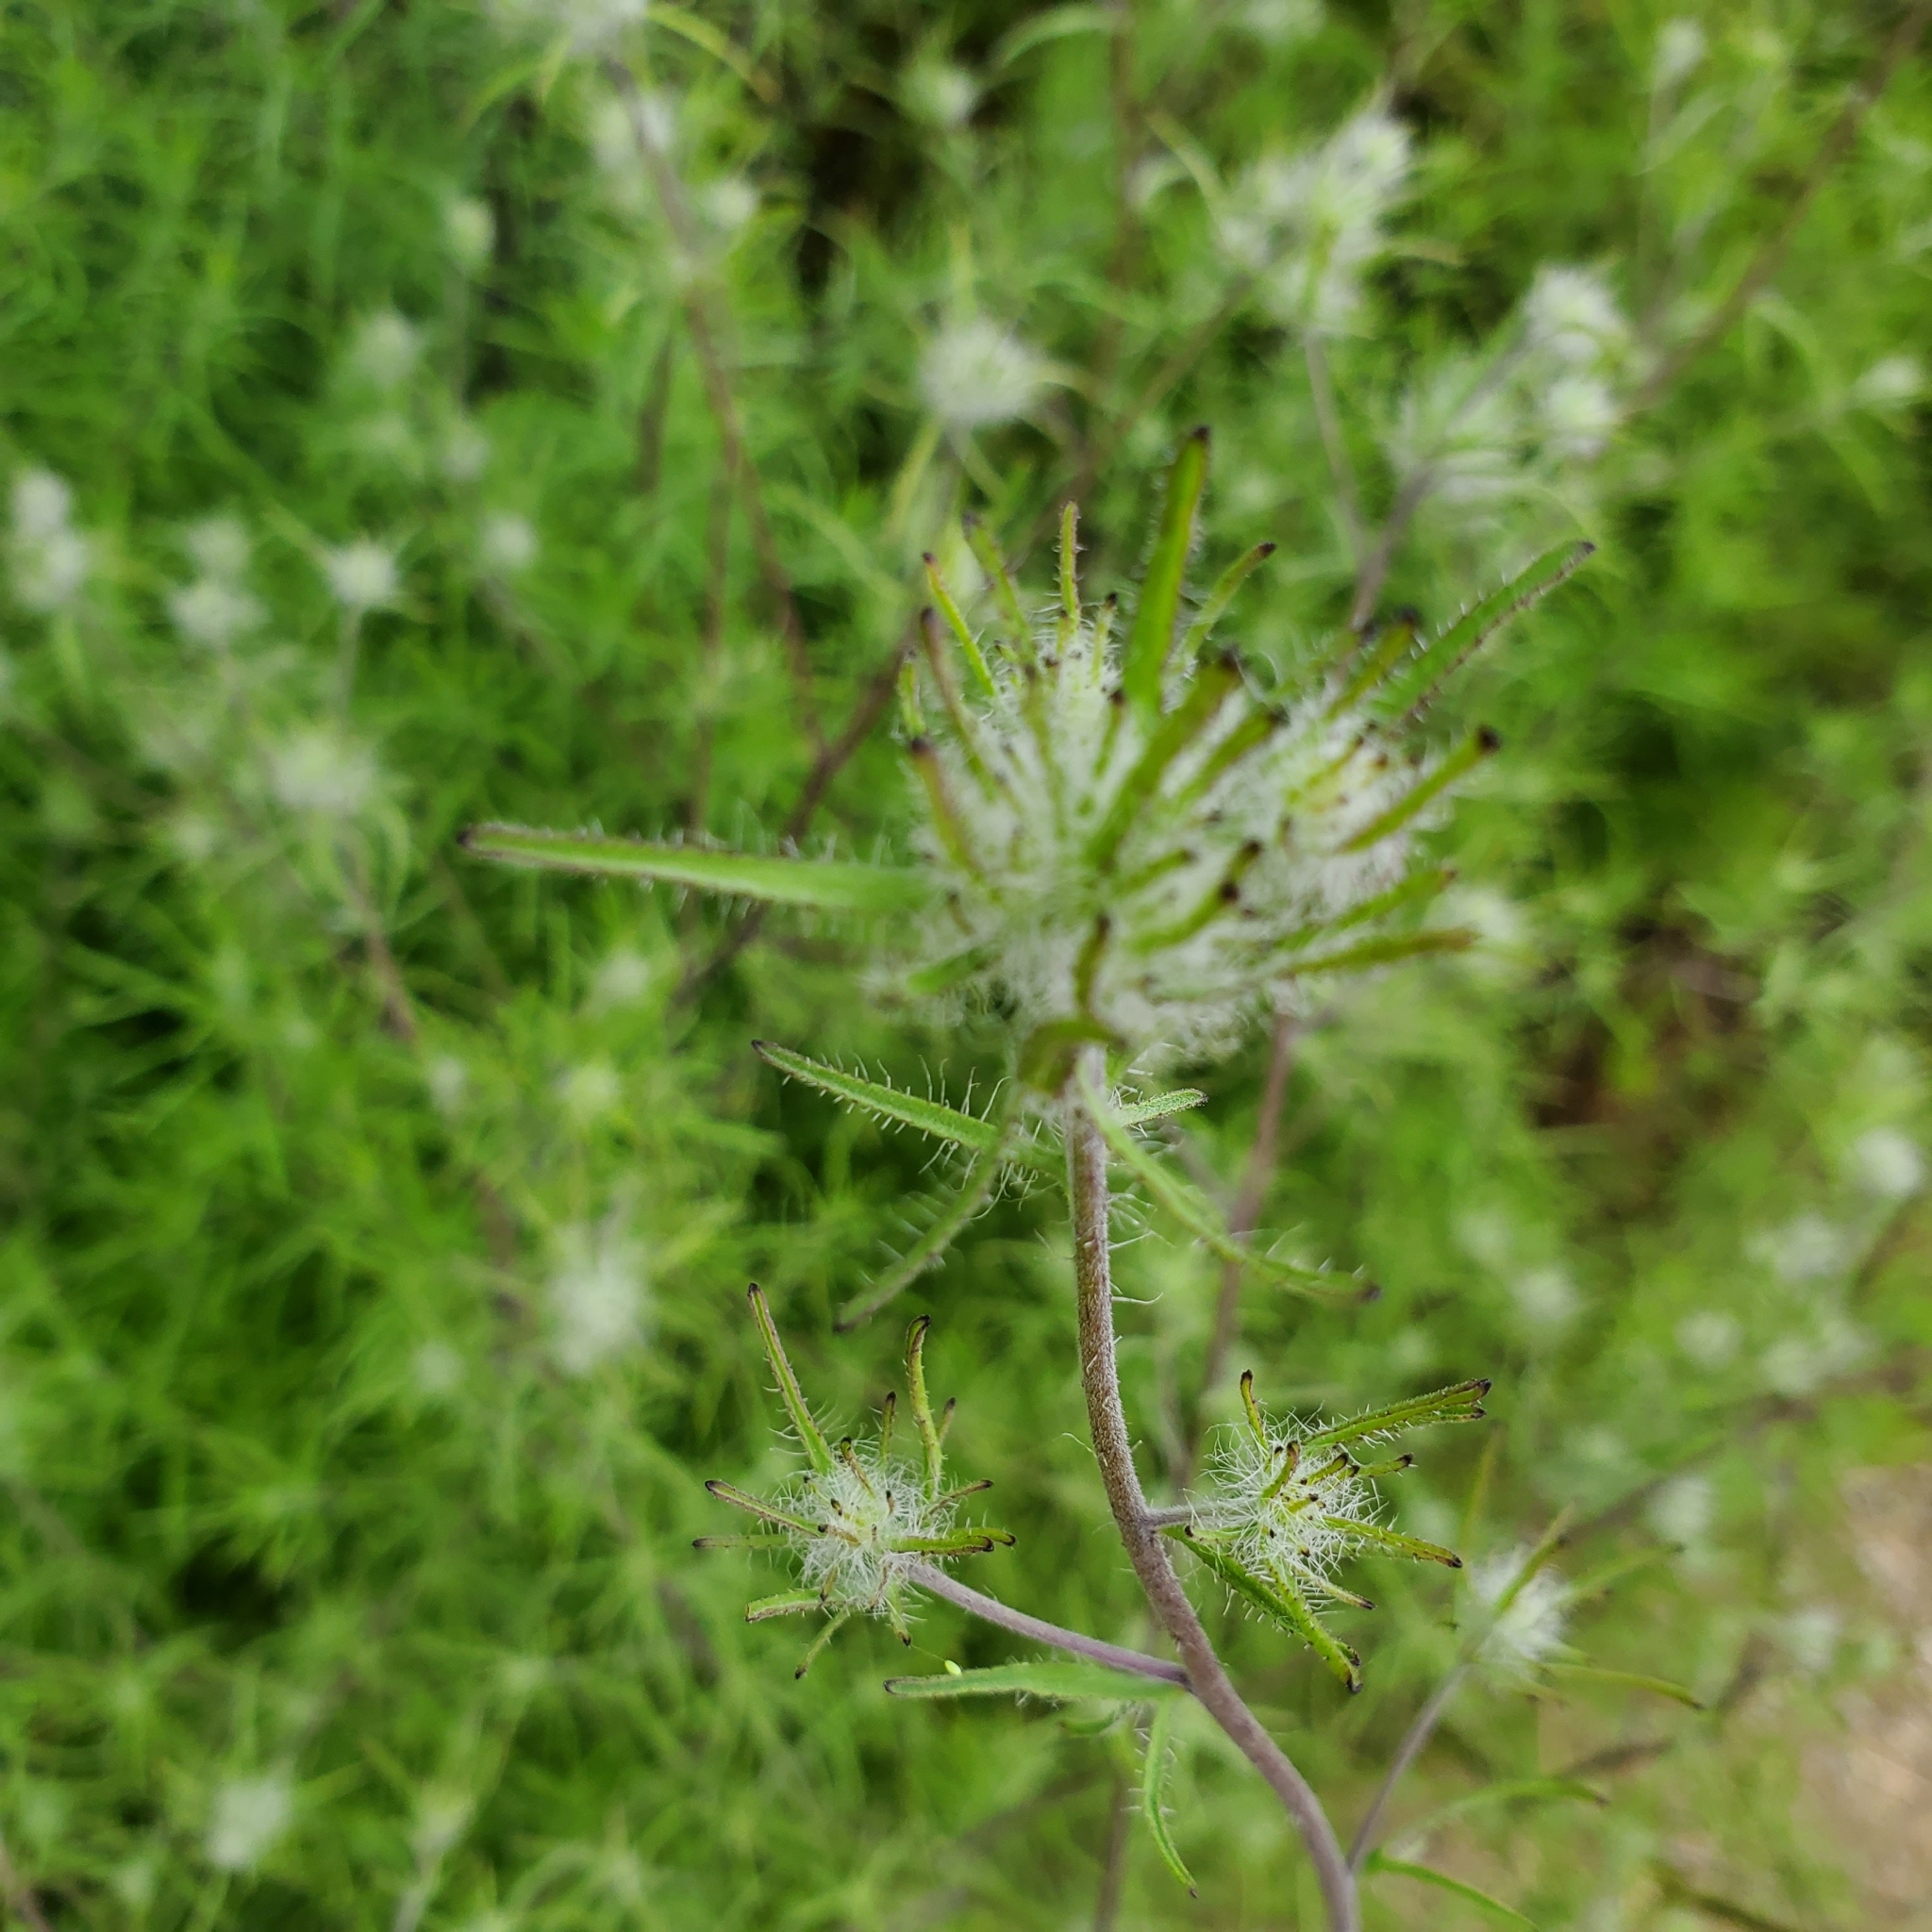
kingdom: Plantae
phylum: Tracheophyta
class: Magnoliopsida
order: Lamiales
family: Orobanchaceae
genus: Cordylanthus
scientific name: Cordylanthus rigidus
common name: Stiff-branch bird's-beak
